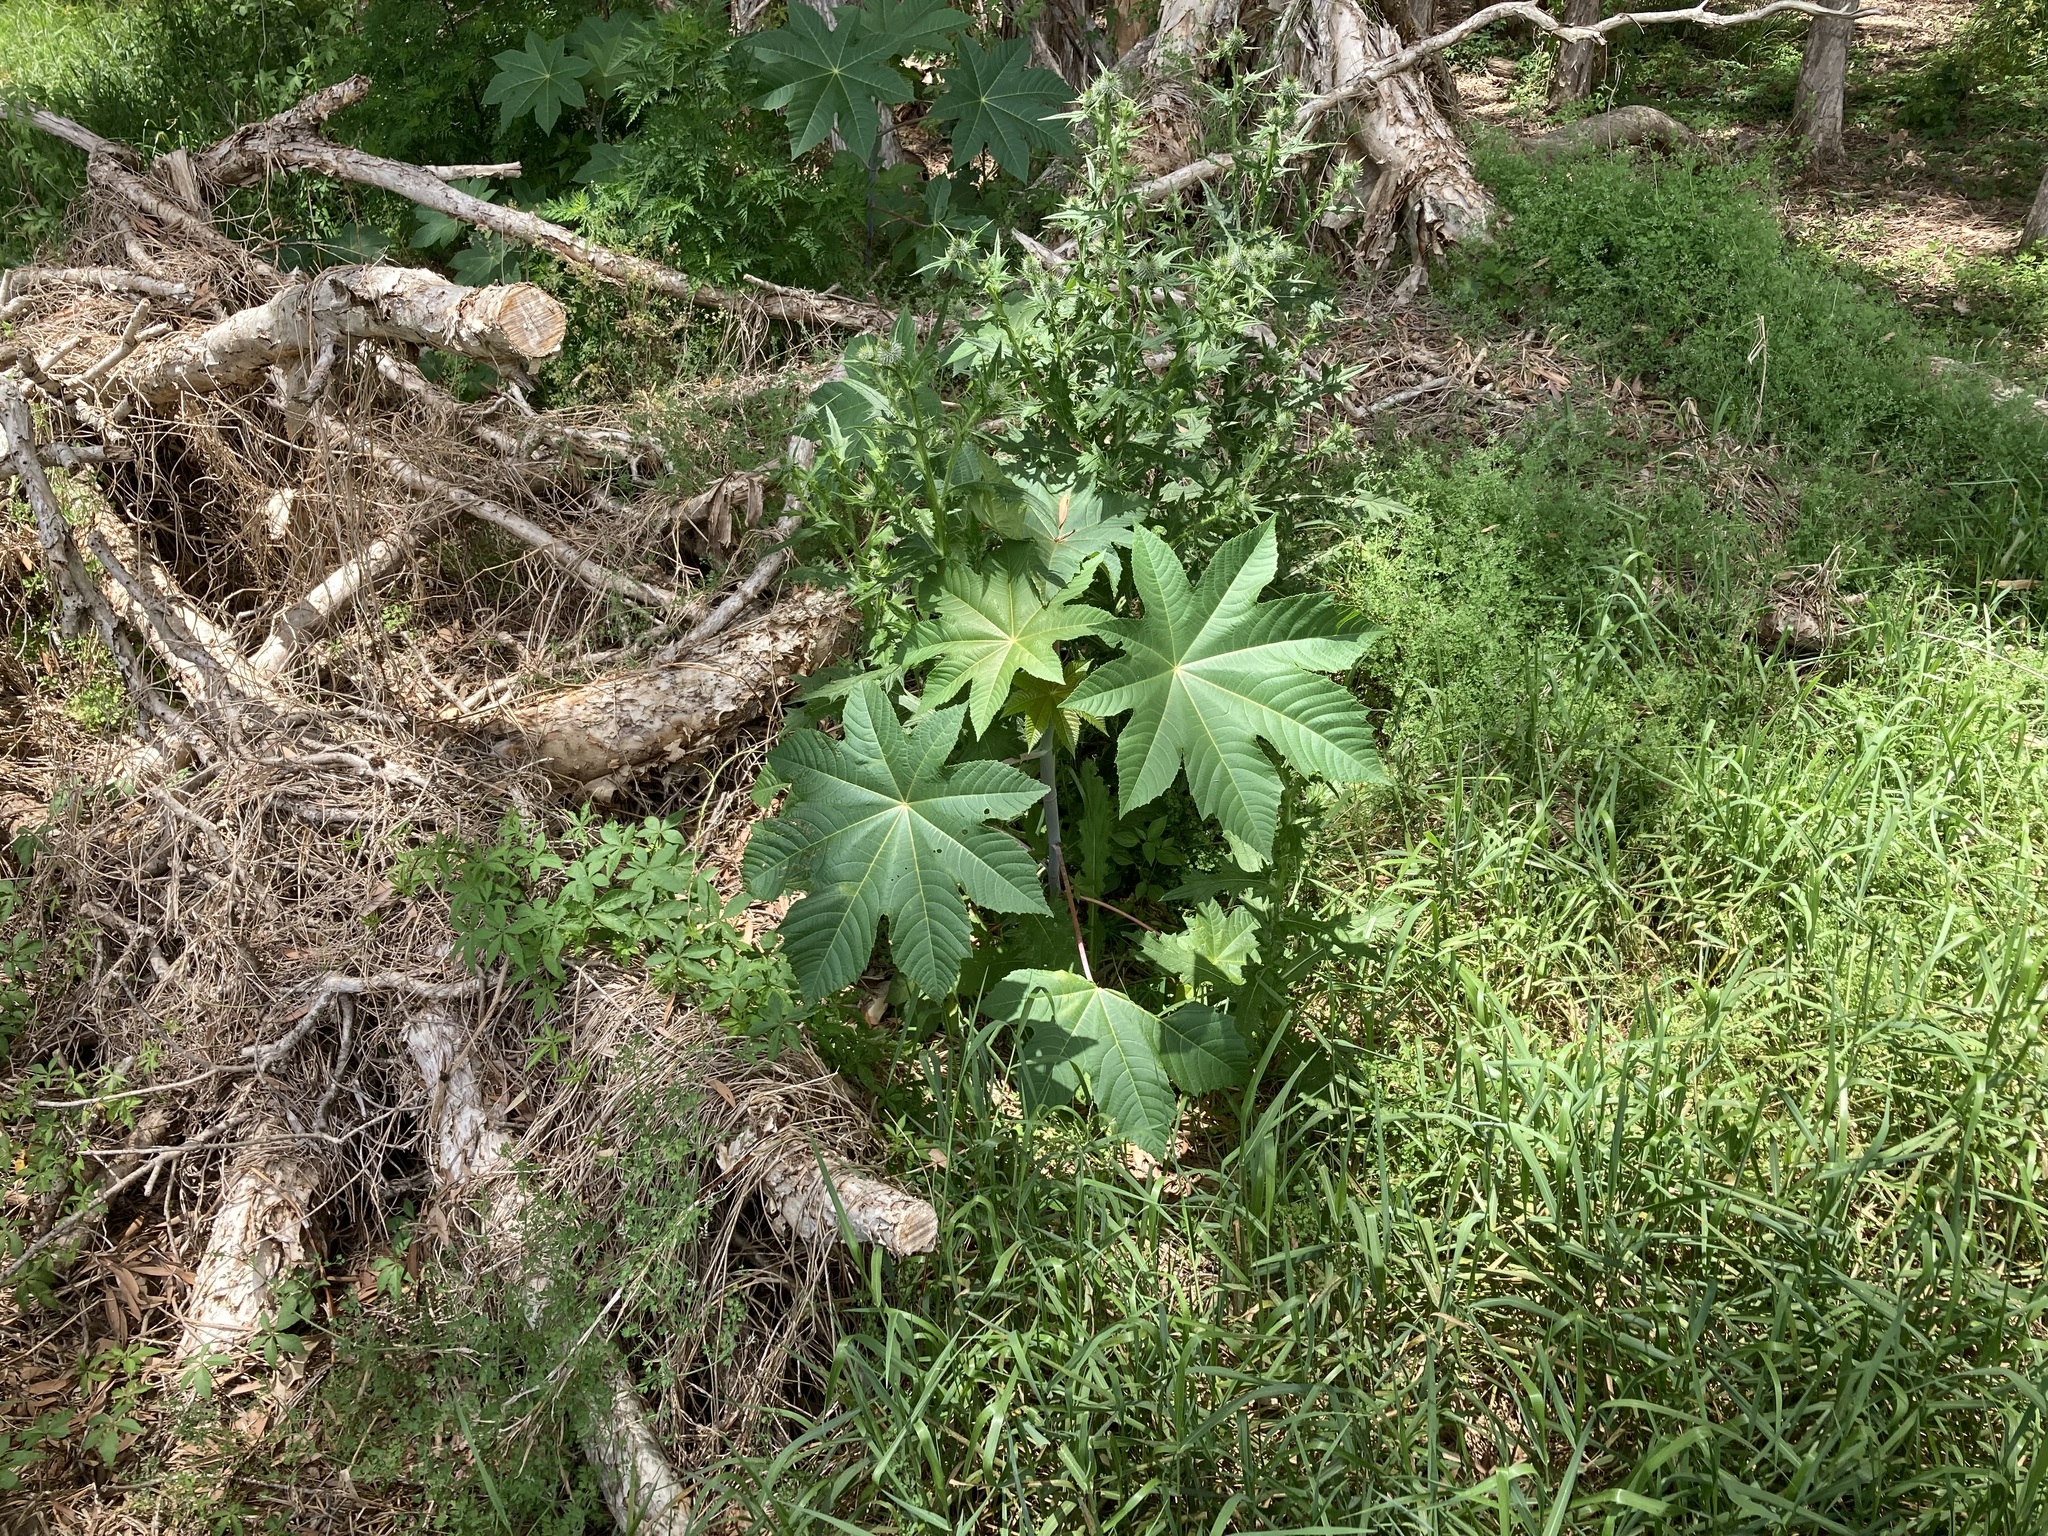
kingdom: Plantae
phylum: Tracheophyta
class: Magnoliopsida
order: Malpighiales
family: Euphorbiaceae
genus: Ricinus
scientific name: Ricinus communis
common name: Castor-oil-plant
